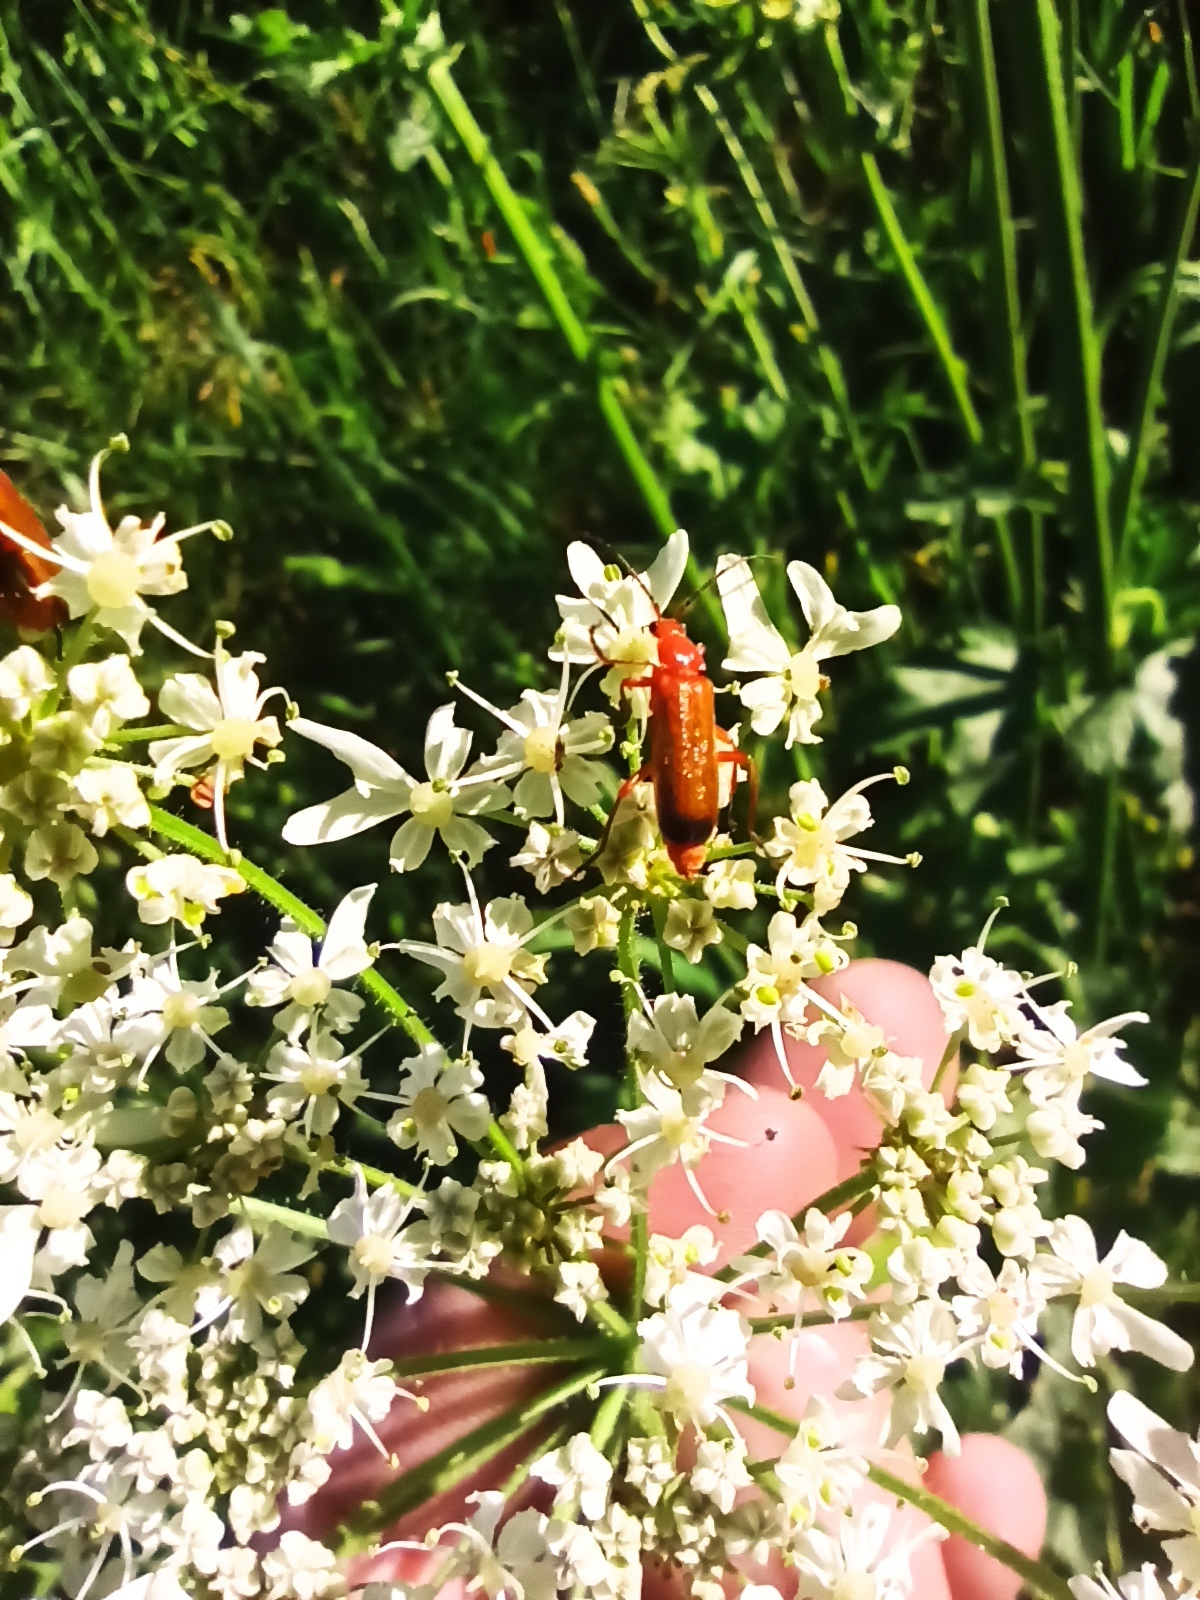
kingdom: Animalia
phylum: Arthropoda
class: Insecta
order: Coleoptera
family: Cantharidae
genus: Rhagonycha
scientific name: Rhagonycha fulva
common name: Common red soldier beetle
